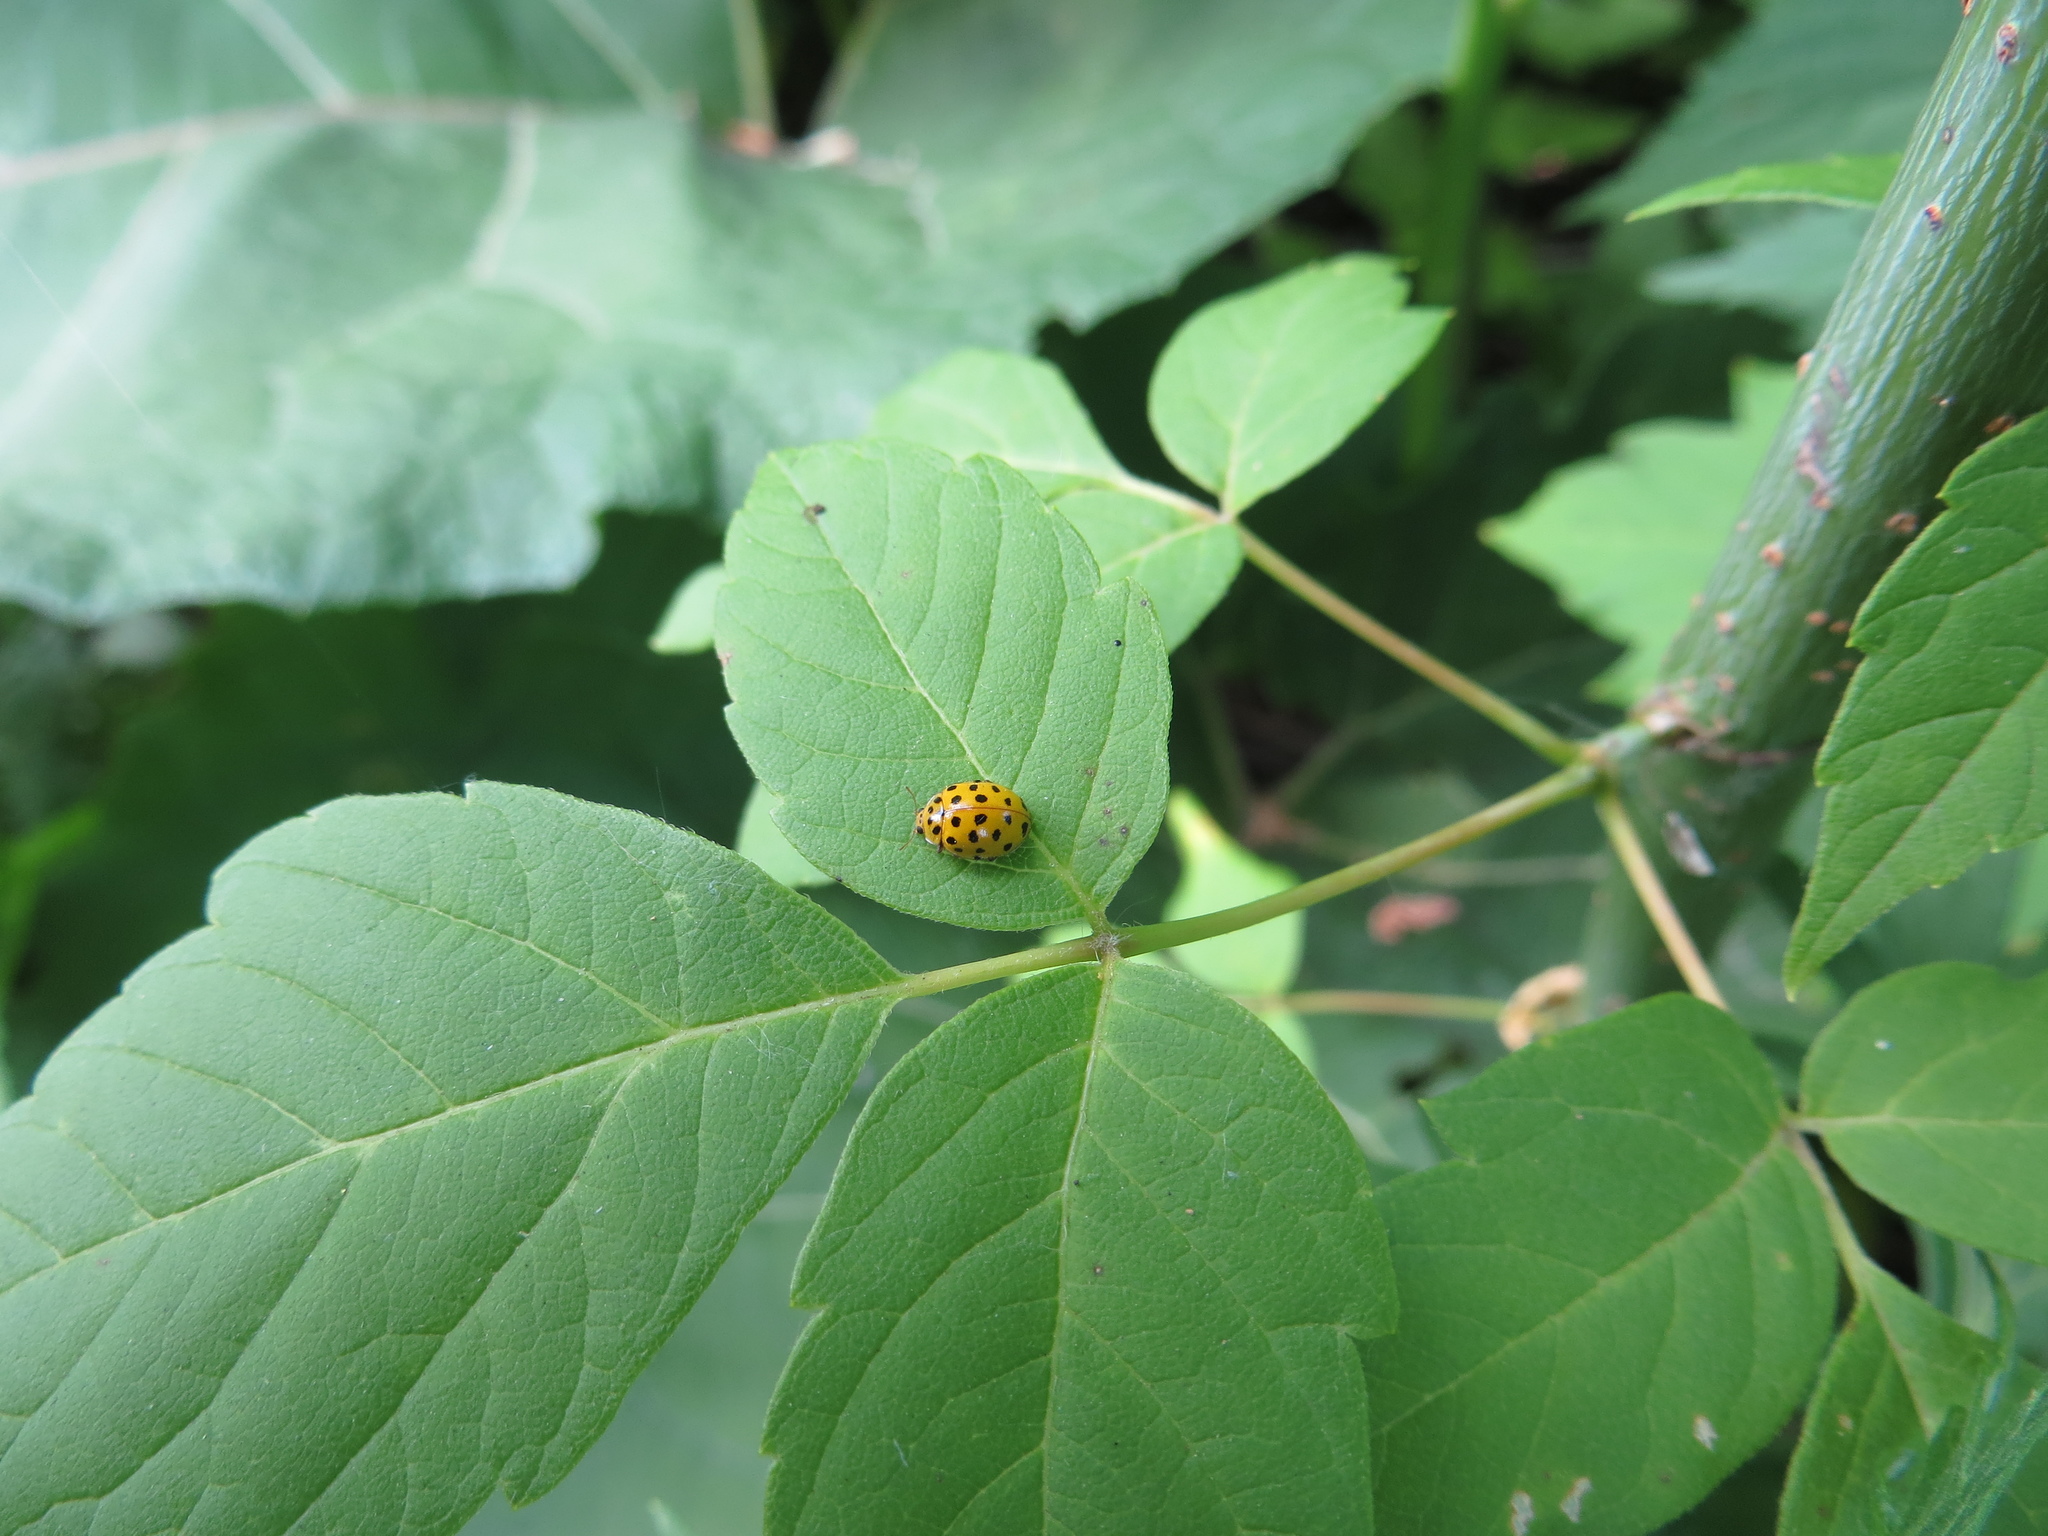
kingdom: Animalia
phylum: Arthropoda
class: Insecta
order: Coleoptera
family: Coccinellidae
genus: Psyllobora
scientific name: Psyllobora vigintiduopunctata
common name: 22-spot ladybird
